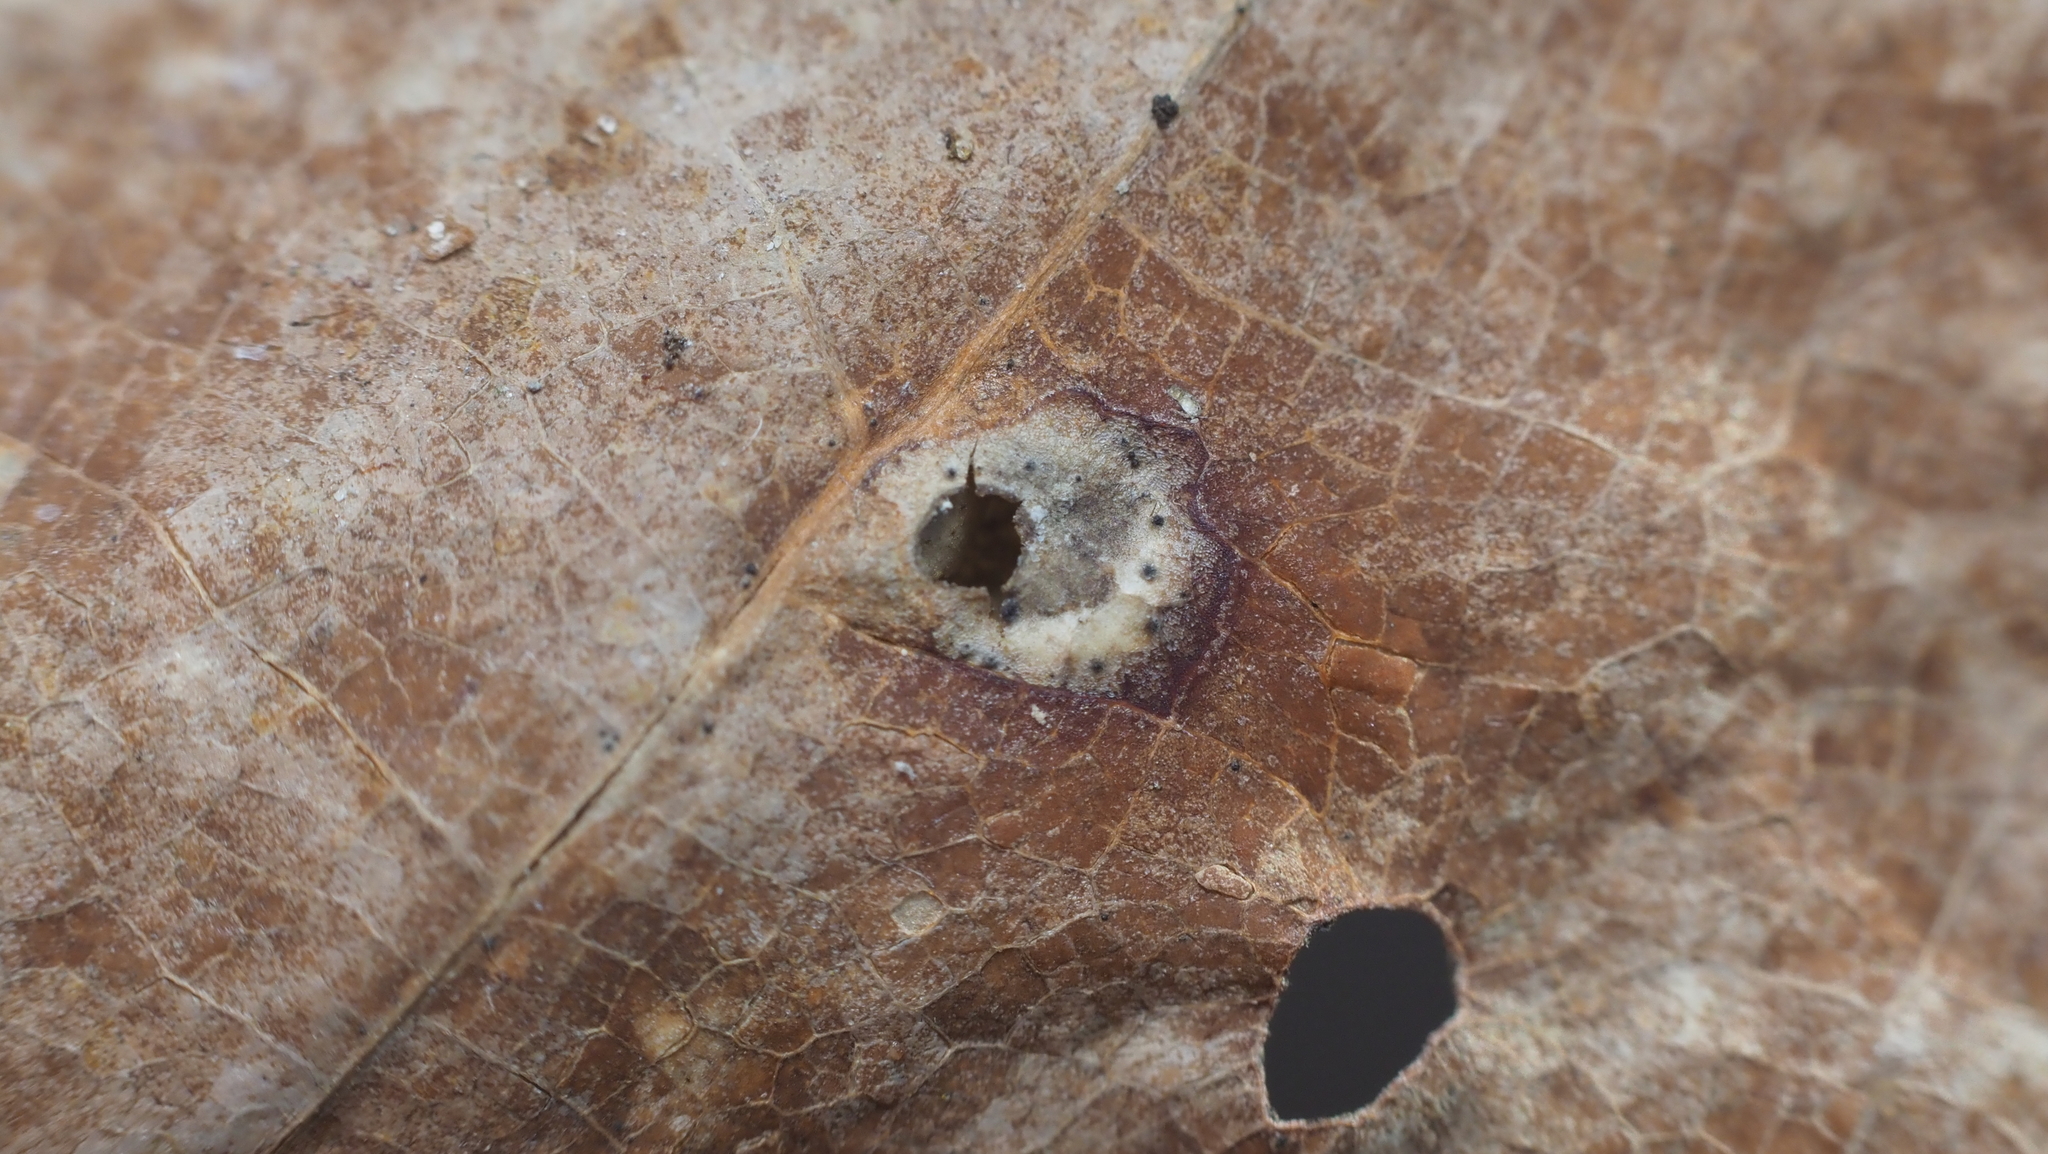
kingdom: Animalia
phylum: Arthropoda
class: Insecta
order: Hymenoptera
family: Cynipidae
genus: Dryocosmus
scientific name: Dryocosmus
